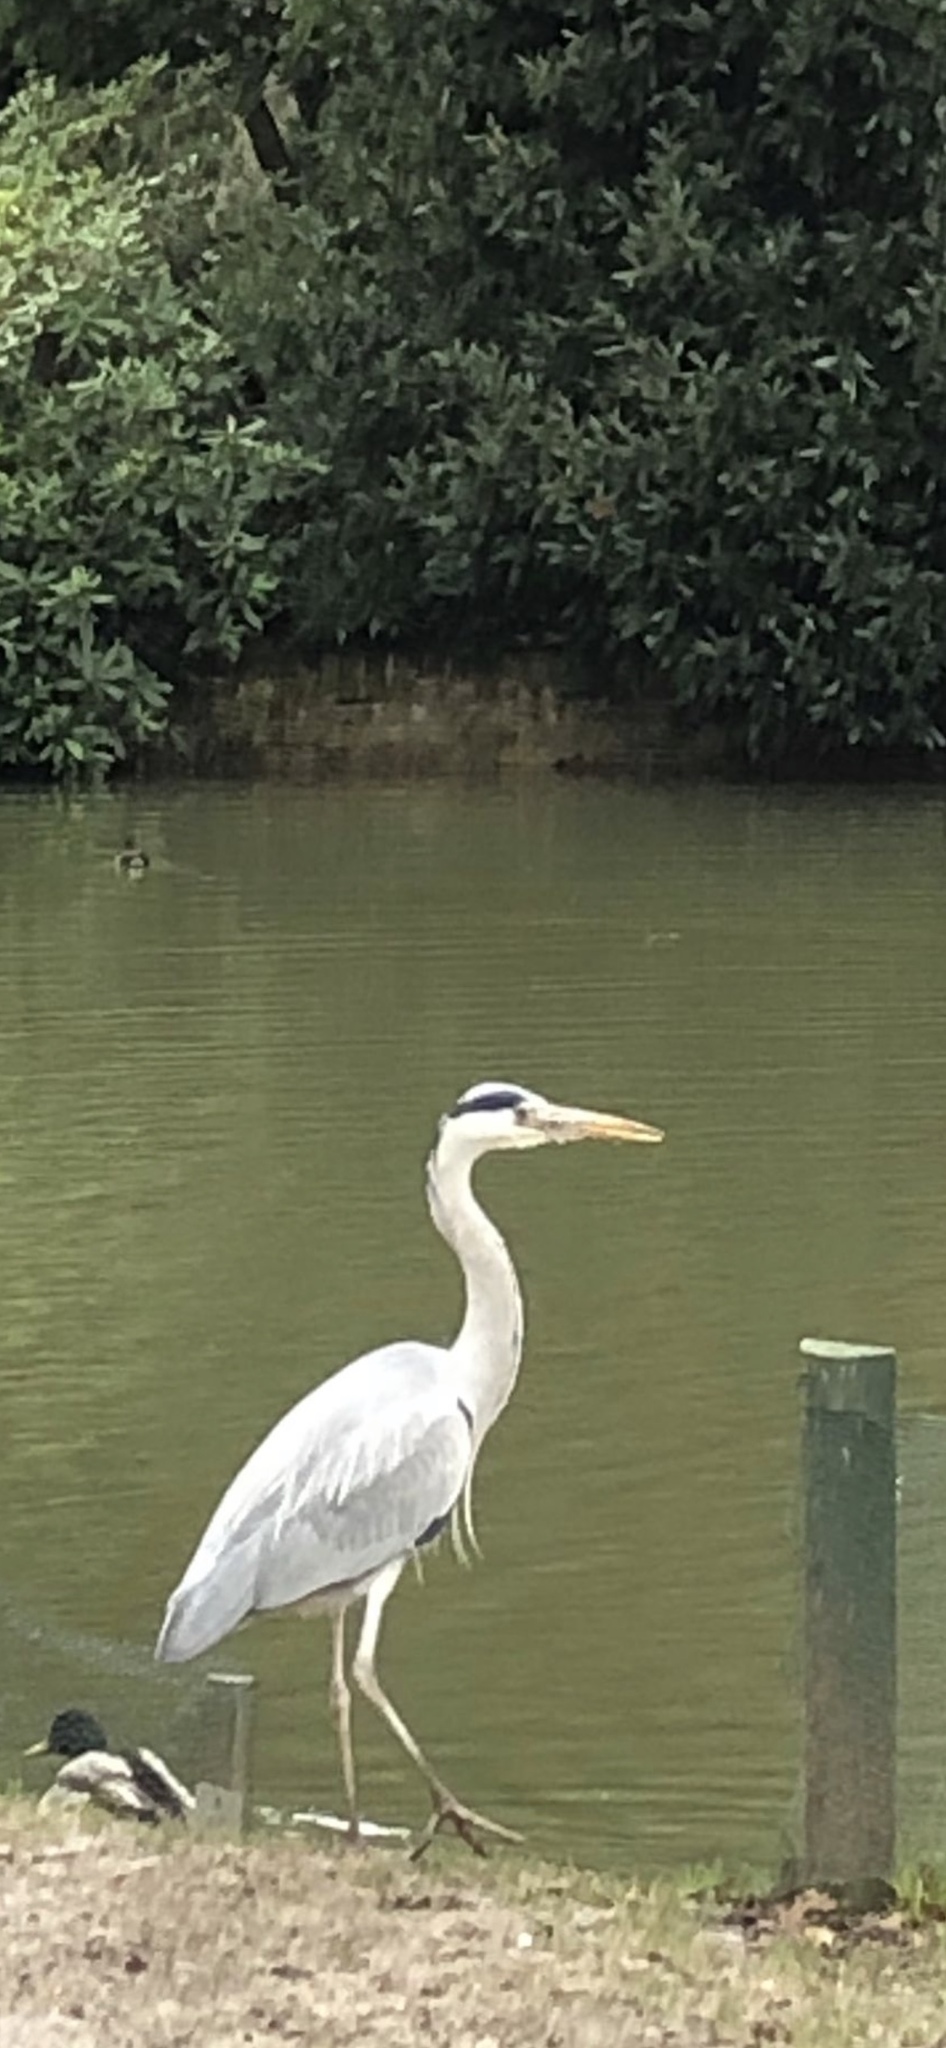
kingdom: Animalia
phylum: Chordata
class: Aves
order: Pelecaniformes
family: Ardeidae
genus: Ardea
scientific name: Ardea cinerea
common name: Grey heron
